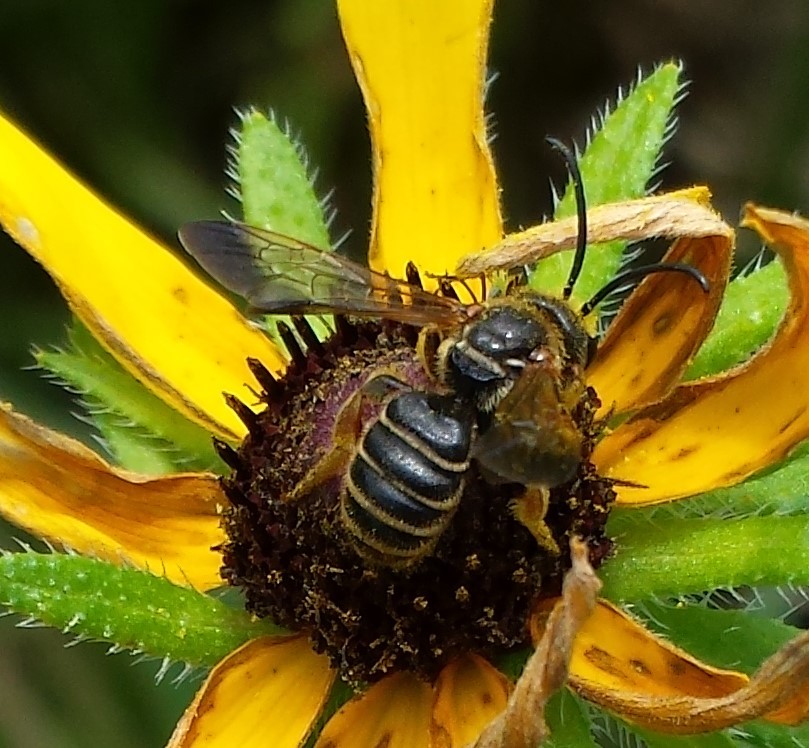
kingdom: Animalia
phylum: Arthropoda
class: Insecta
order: Hymenoptera
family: Halictidae
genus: Dieunomia
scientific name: Dieunomia nevadensis
